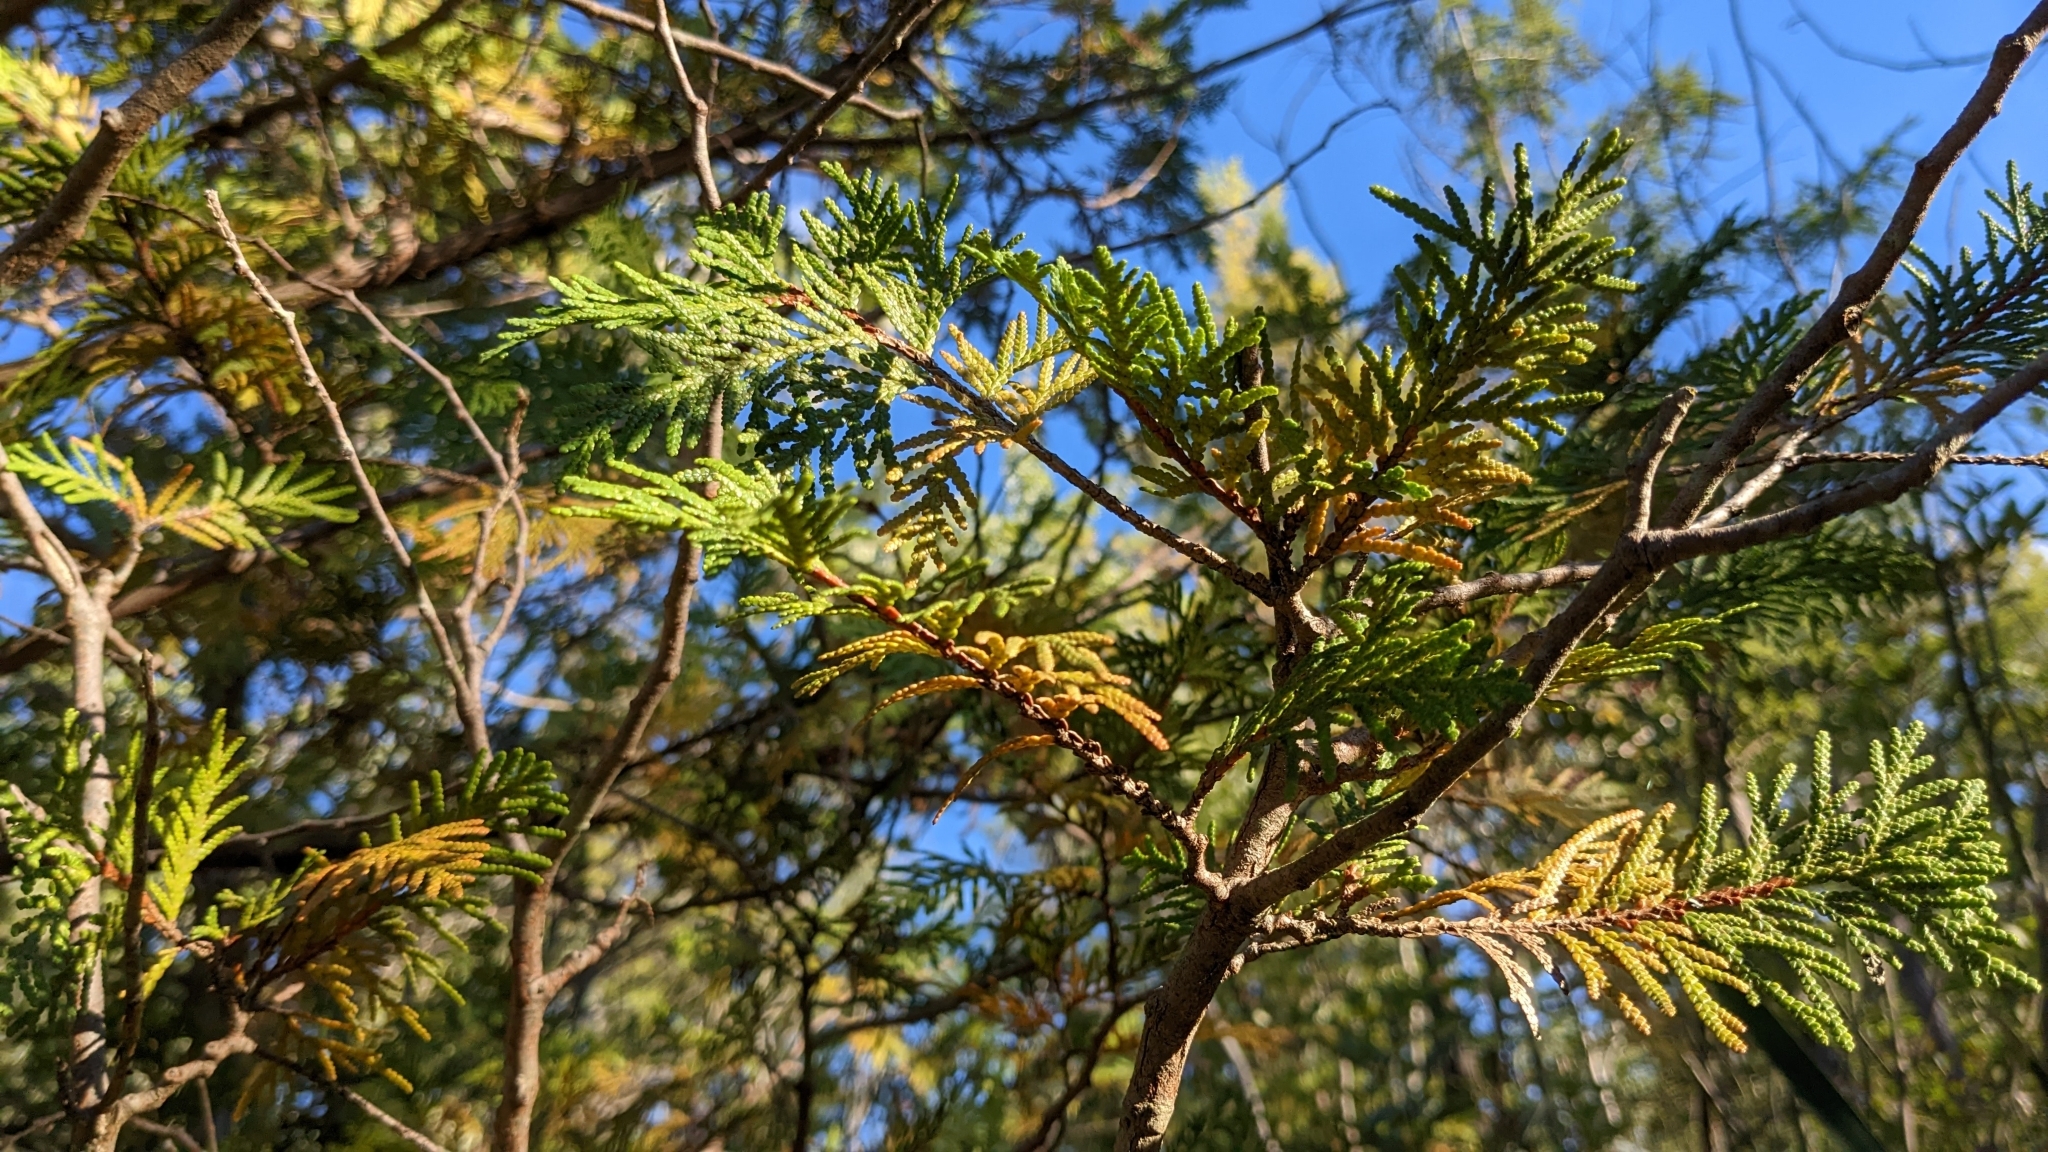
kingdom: Plantae
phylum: Tracheophyta
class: Pinopsida
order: Pinales
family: Cupressaceae
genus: Thuja
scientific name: Thuja occidentalis
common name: Northern white-cedar
